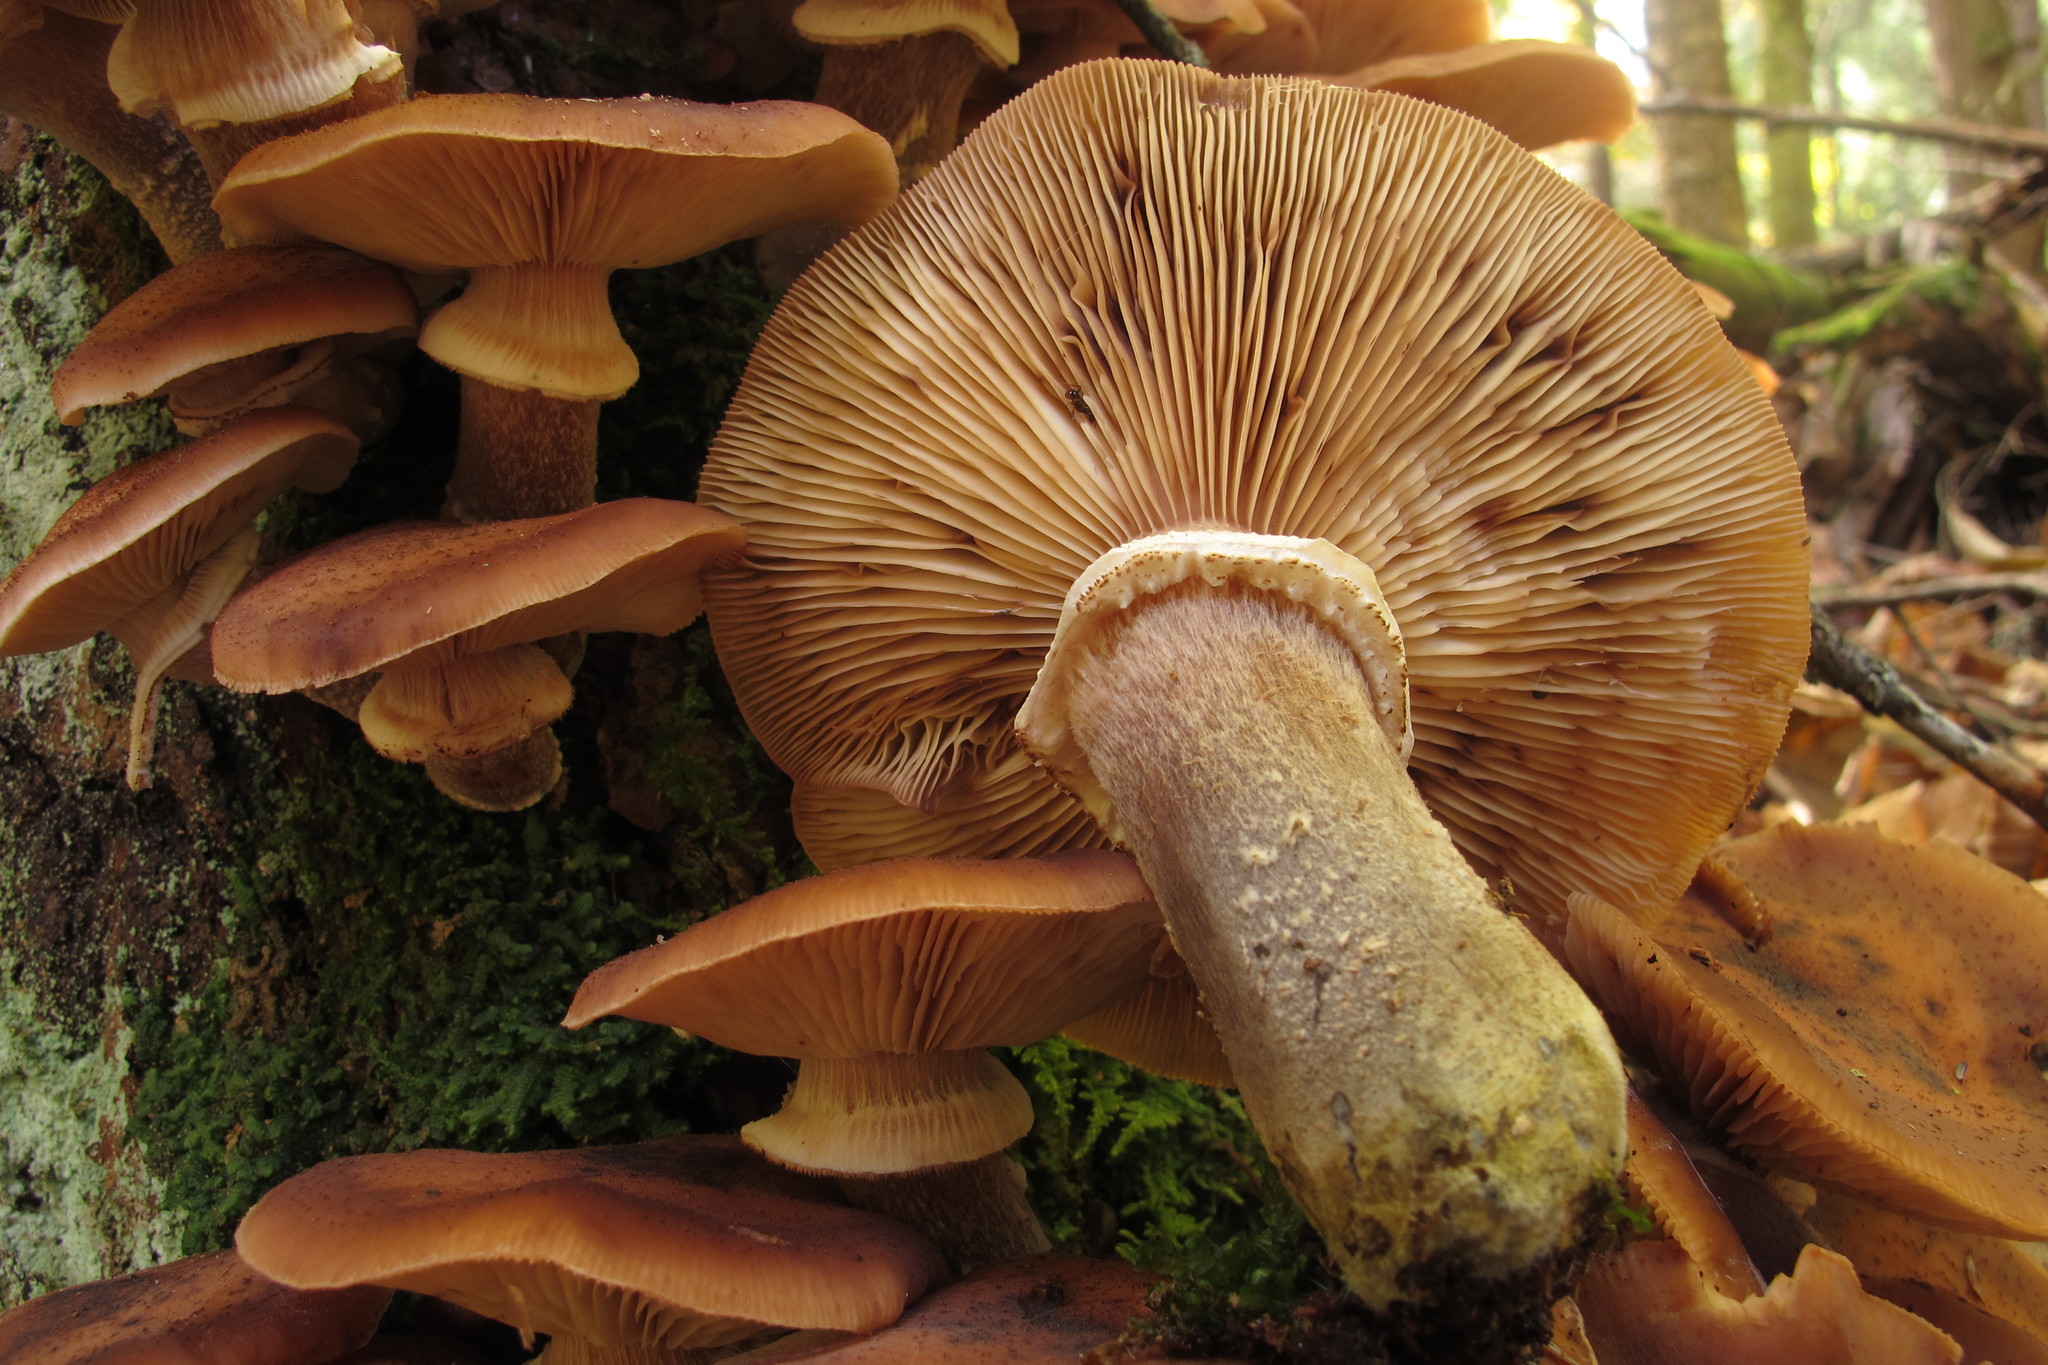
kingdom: Fungi
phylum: Basidiomycota
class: Agaricomycetes
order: Agaricales
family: Physalacriaceae
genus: Armillaria
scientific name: Armillaria ostoyae
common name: Dark honey fungus
